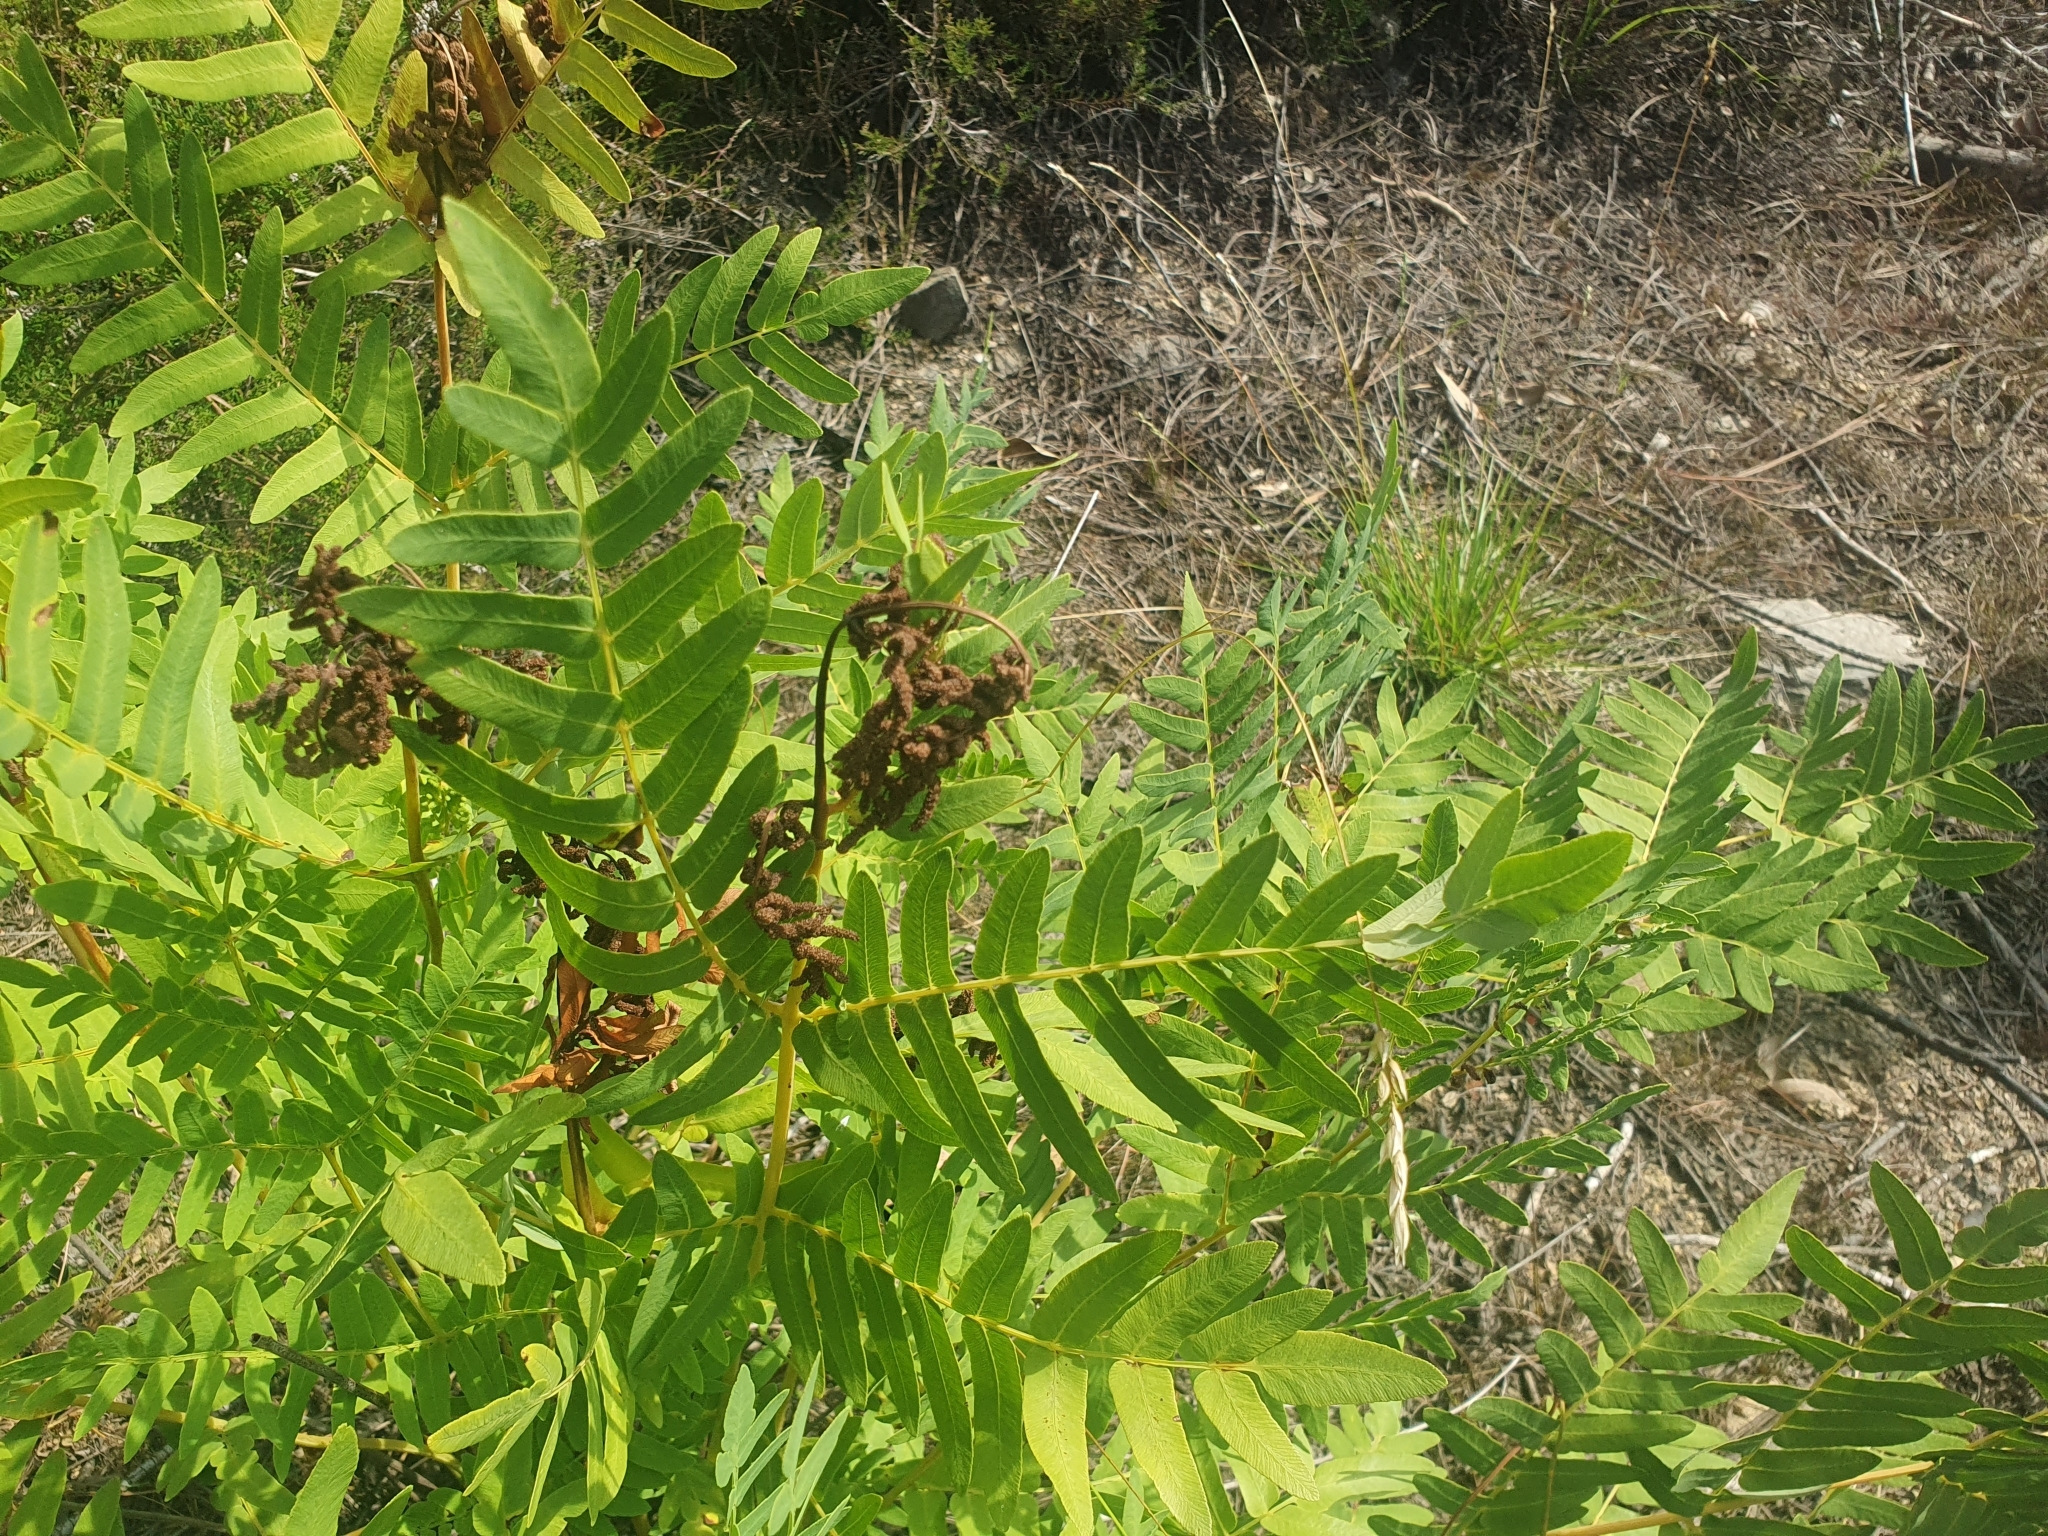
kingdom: Plantae
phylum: Tracheophyta
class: Polypodiopsida
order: Osmundales
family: Osmundaceae
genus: Osmunda
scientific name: Osmunda regalis
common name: Royal fern
